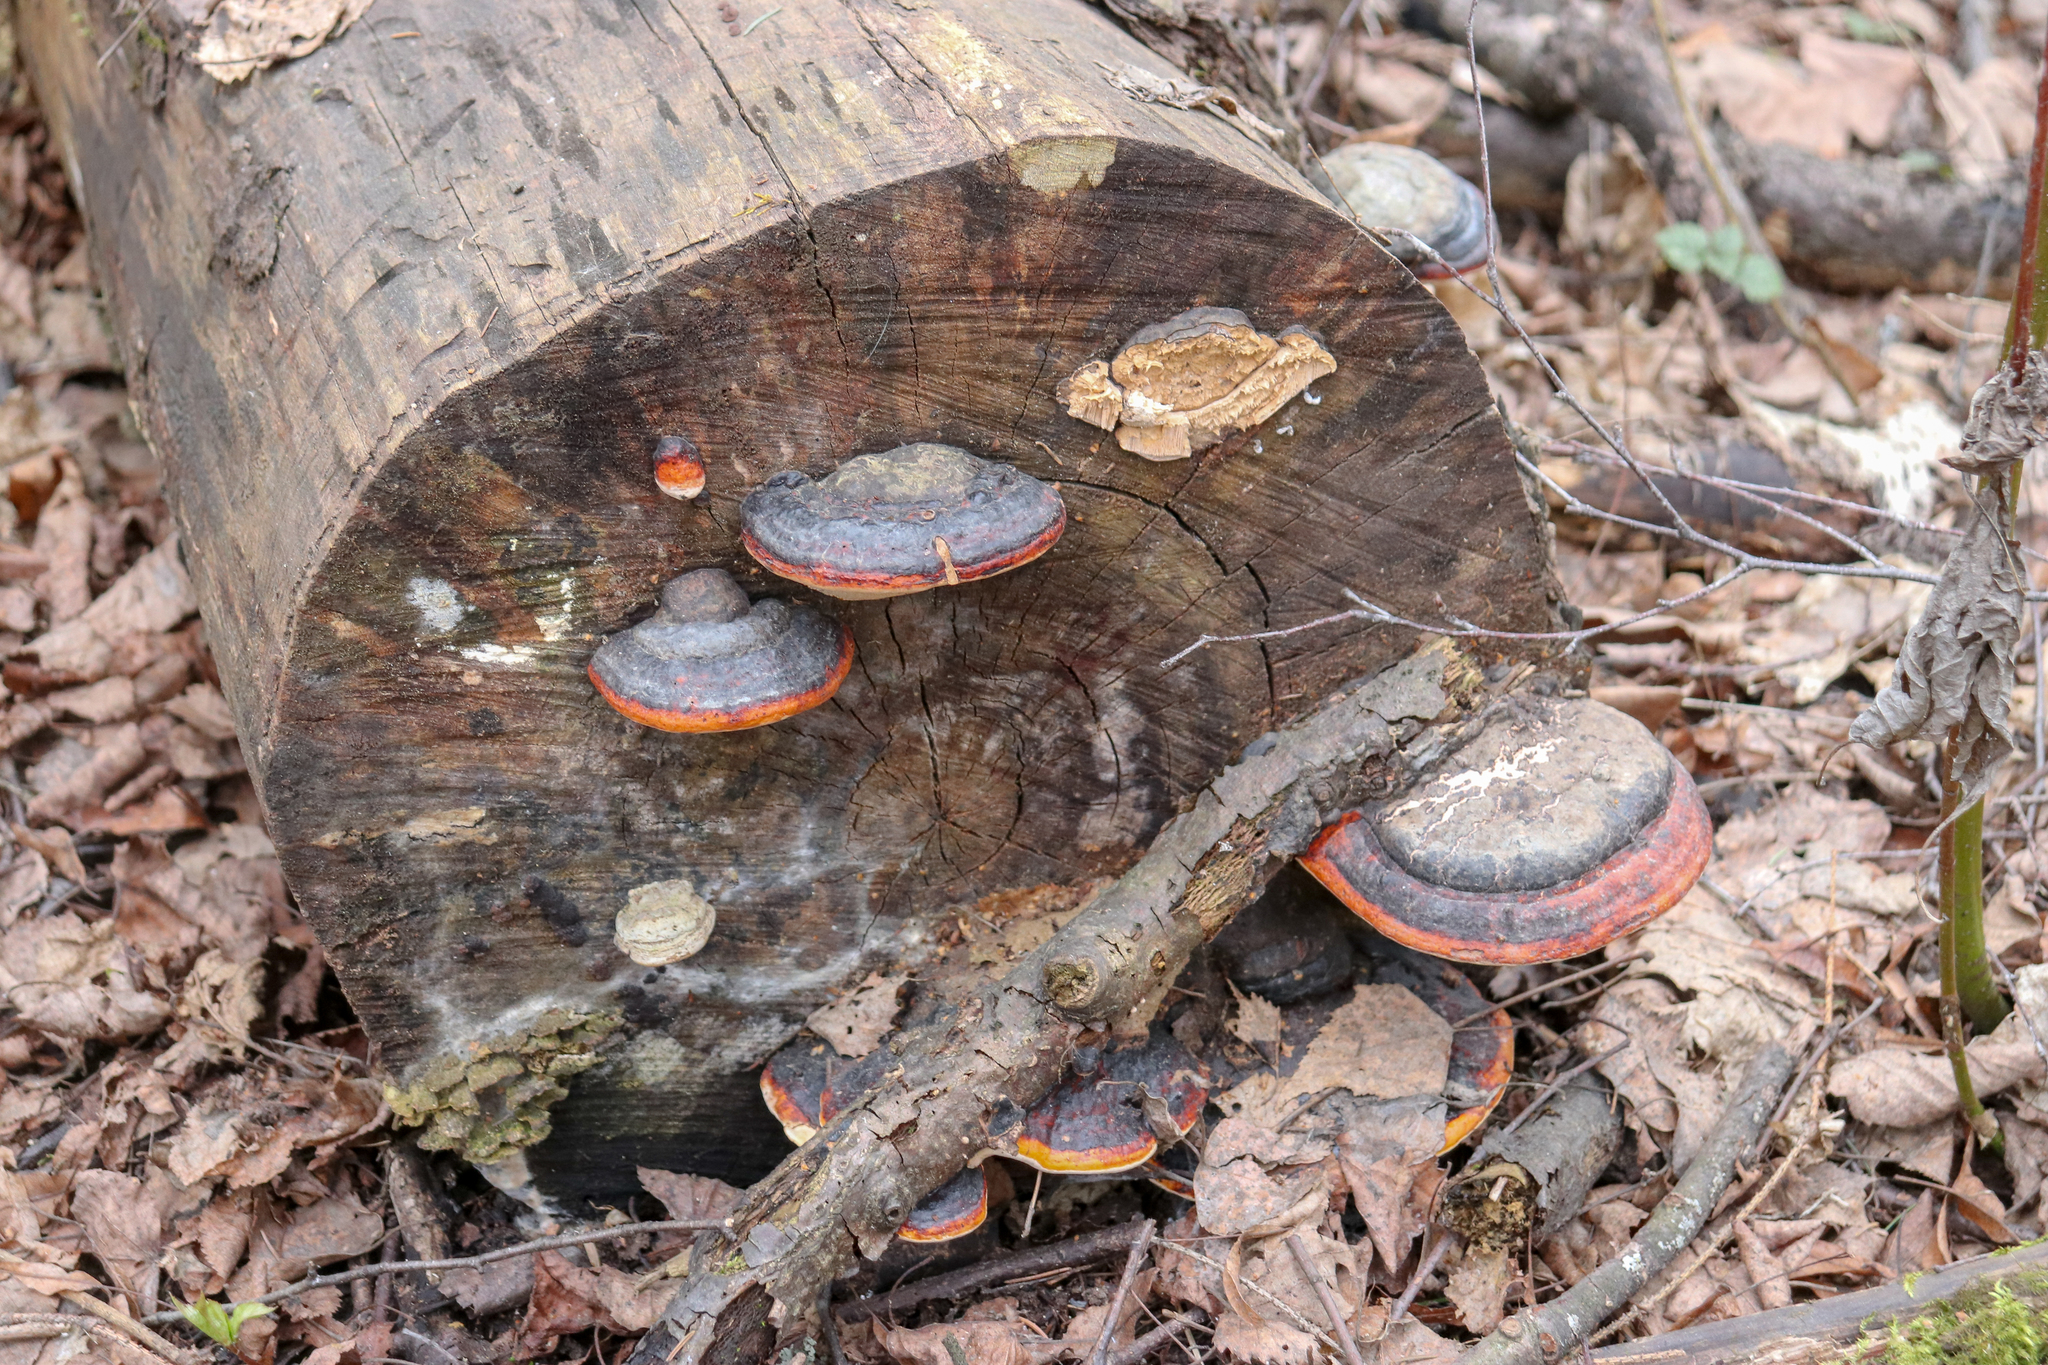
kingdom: Fungi
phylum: Basidiomycota
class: Agaricomycetes
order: Polyporales
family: Fomitopsidaceae
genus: Fomitopsis
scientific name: Fomitopsis pinicola
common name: Red-belted bracket
